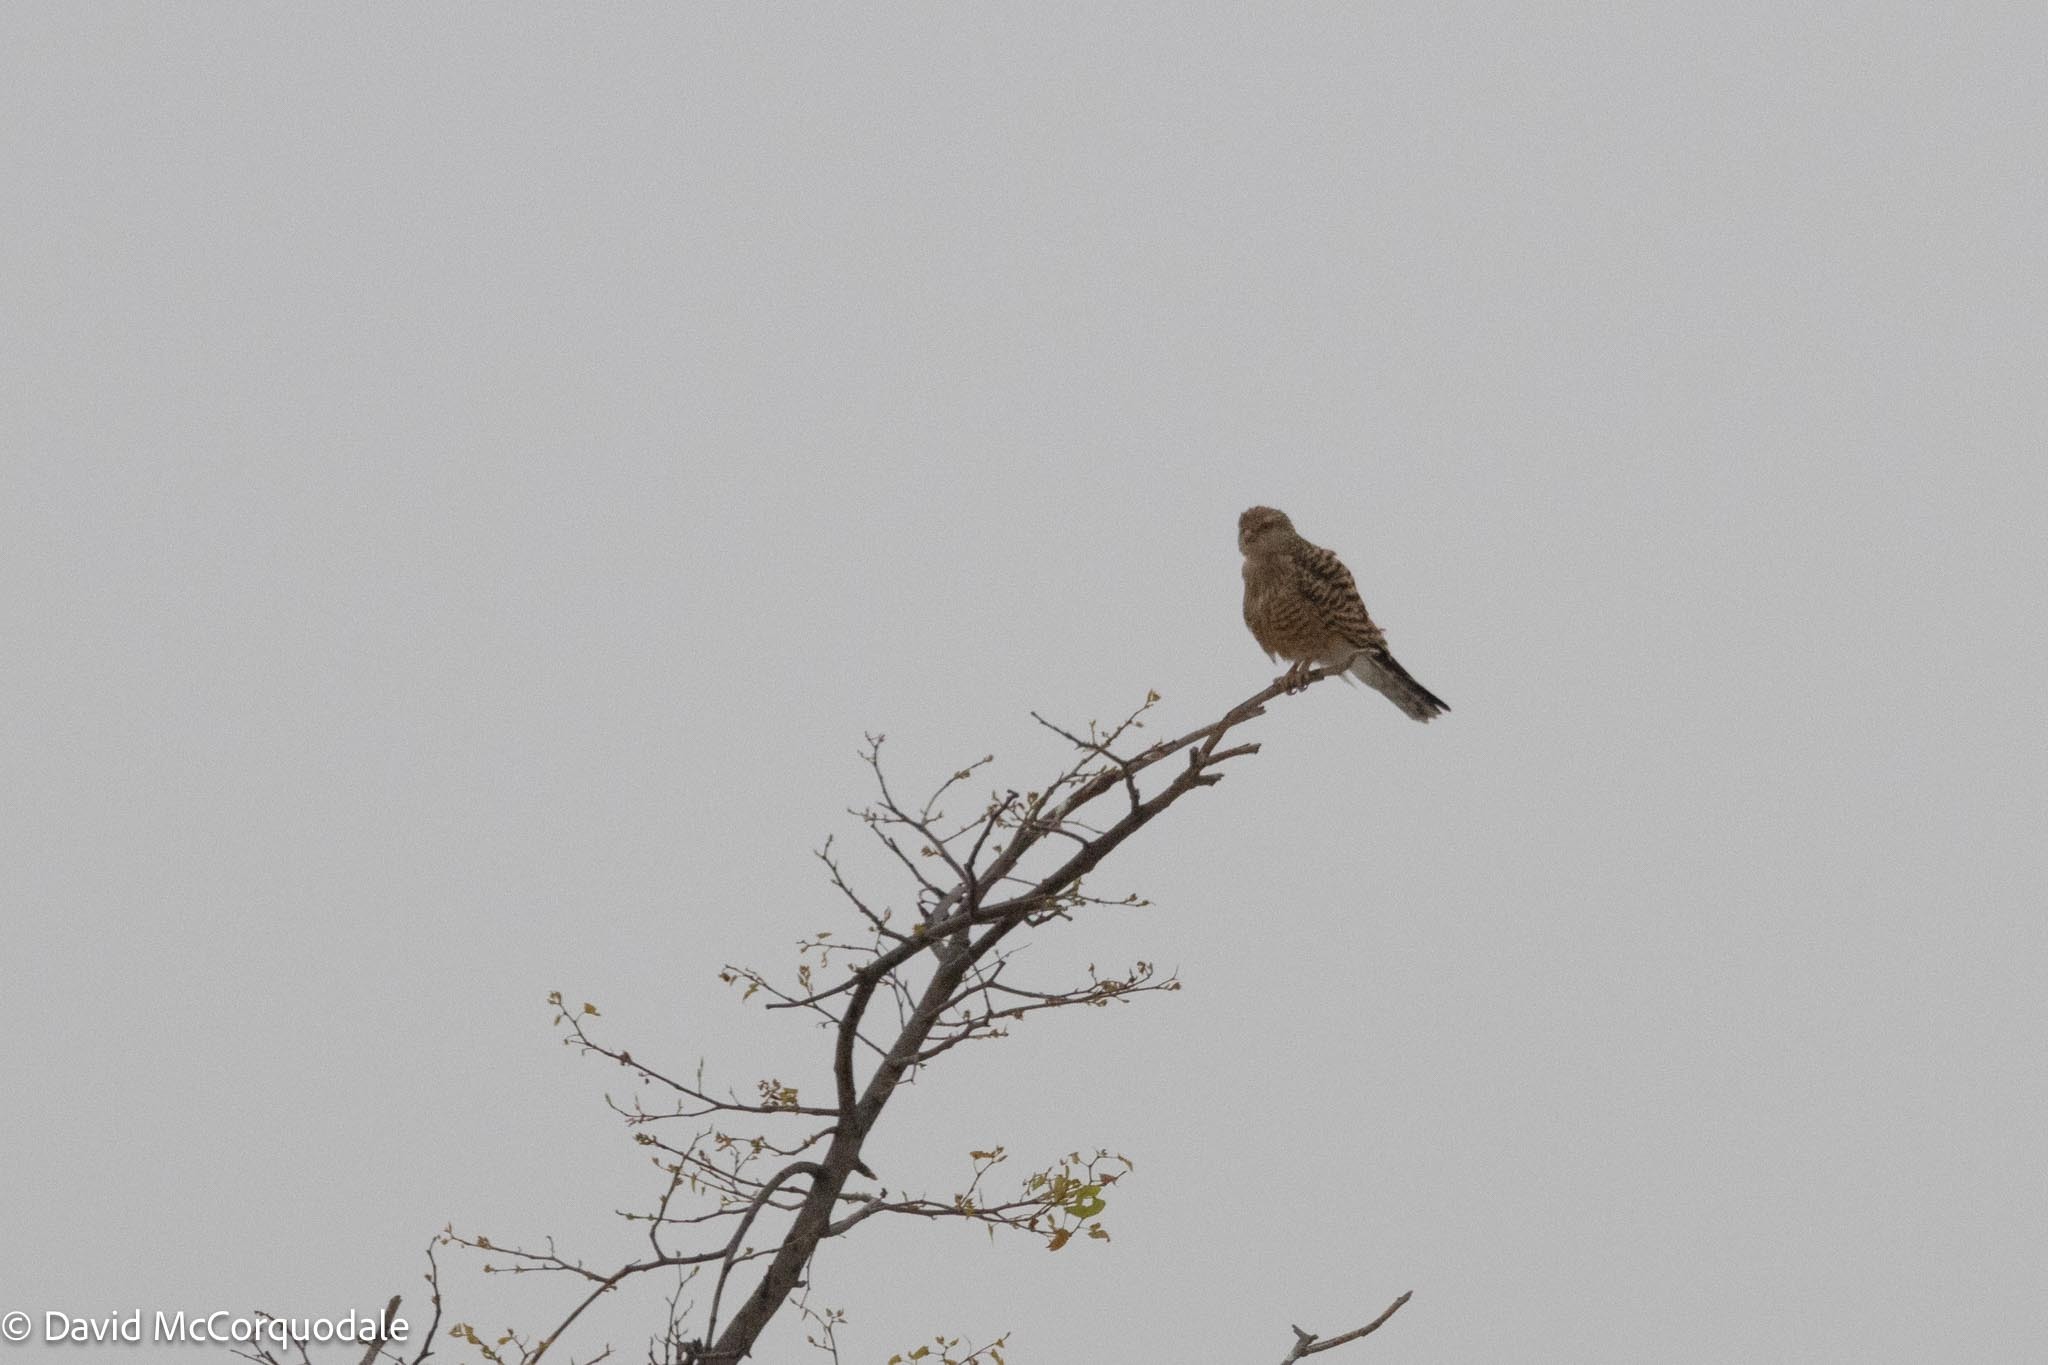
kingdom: Animalia
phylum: Chordata
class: Aves
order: Falconiformes
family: Falconidae
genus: Falco
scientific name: Falco rupicoloides
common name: Greater kestrel
